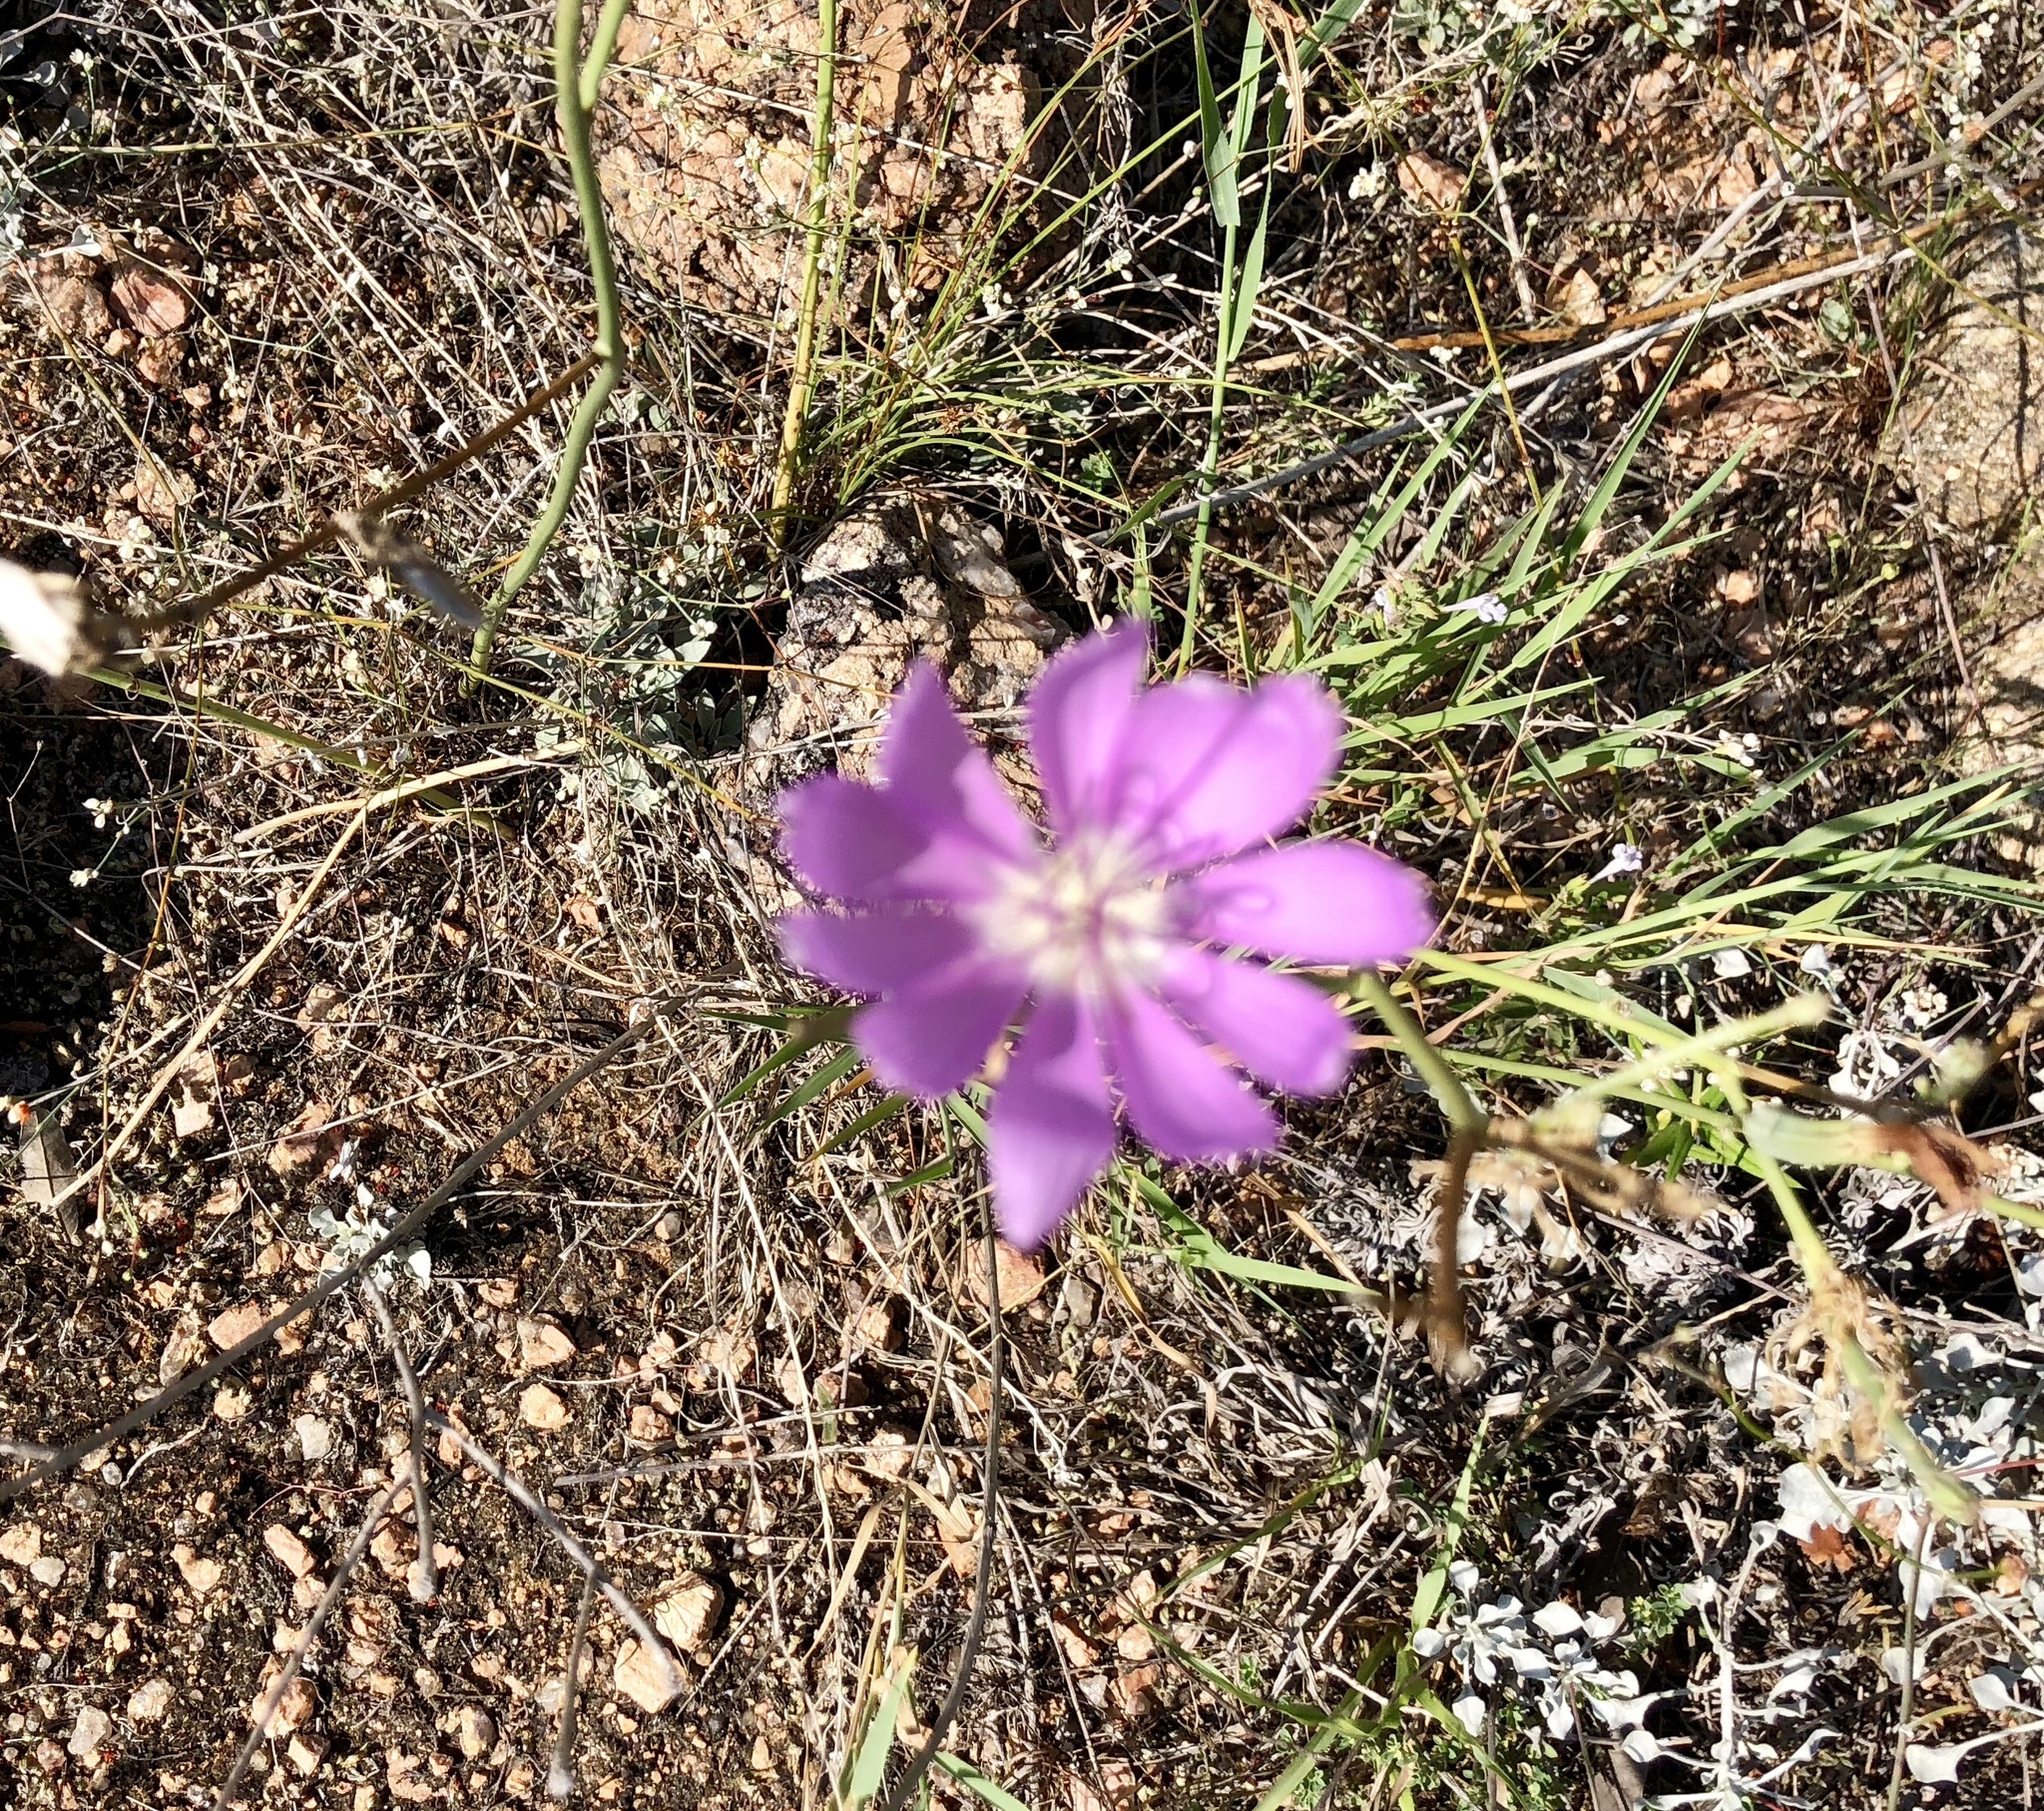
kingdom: Plantae
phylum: Tracheophyta
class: Magnoliopsida
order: Asterales
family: Asteraceae
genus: Lygodesmia
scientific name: Lygodesmia texana
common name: Texas skeleton-plant
